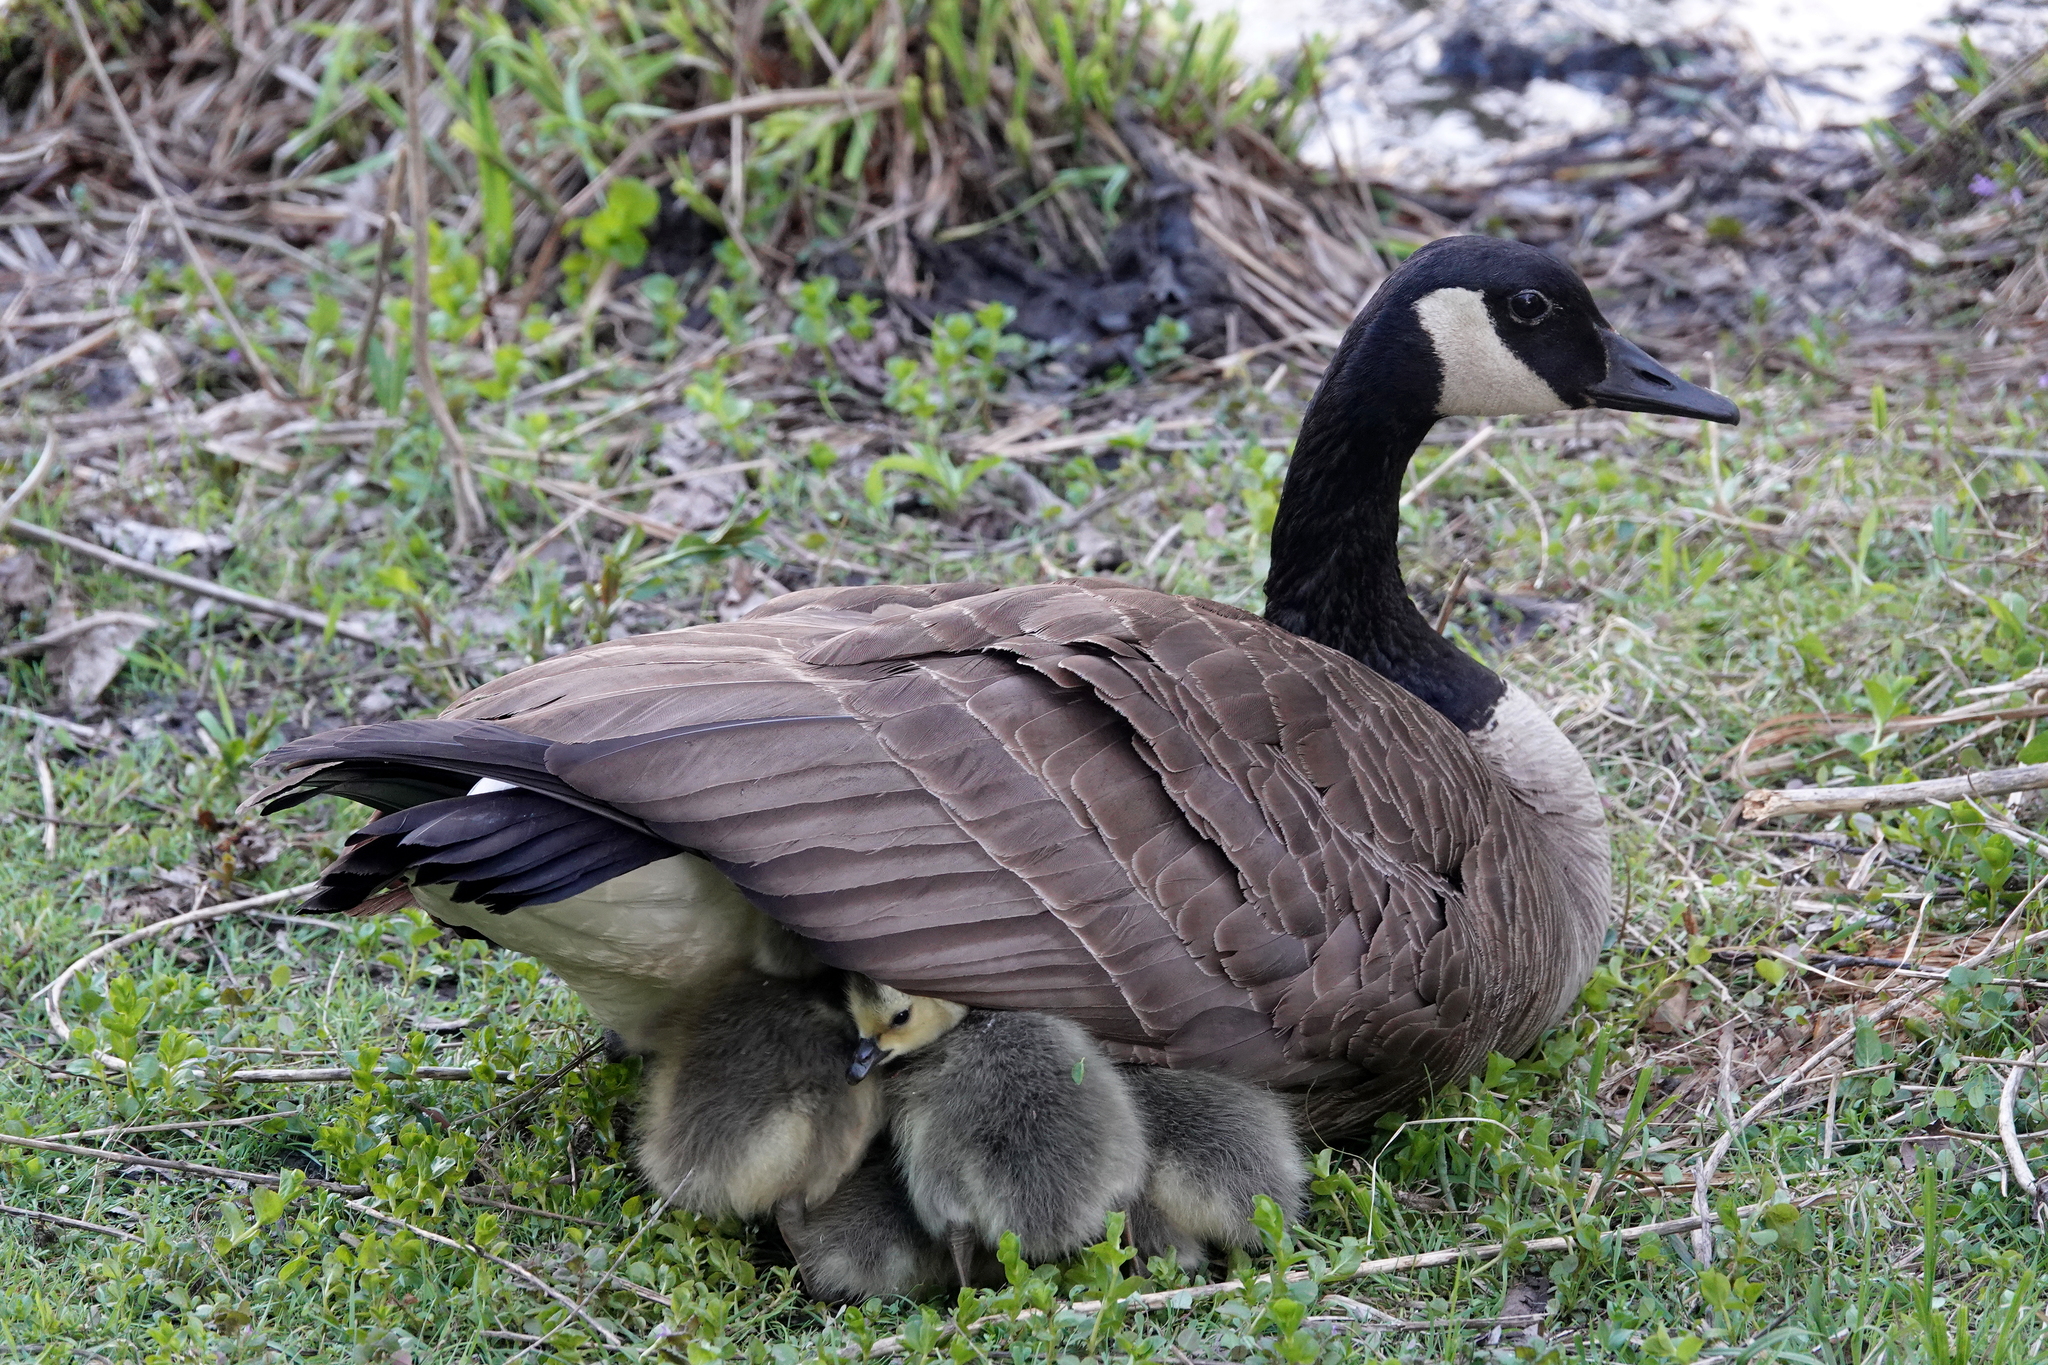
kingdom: Animalia
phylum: Chordata
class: Aves
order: Anseriformes
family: Anatidae
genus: Branta
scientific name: Branta canadensis
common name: Canada goose
